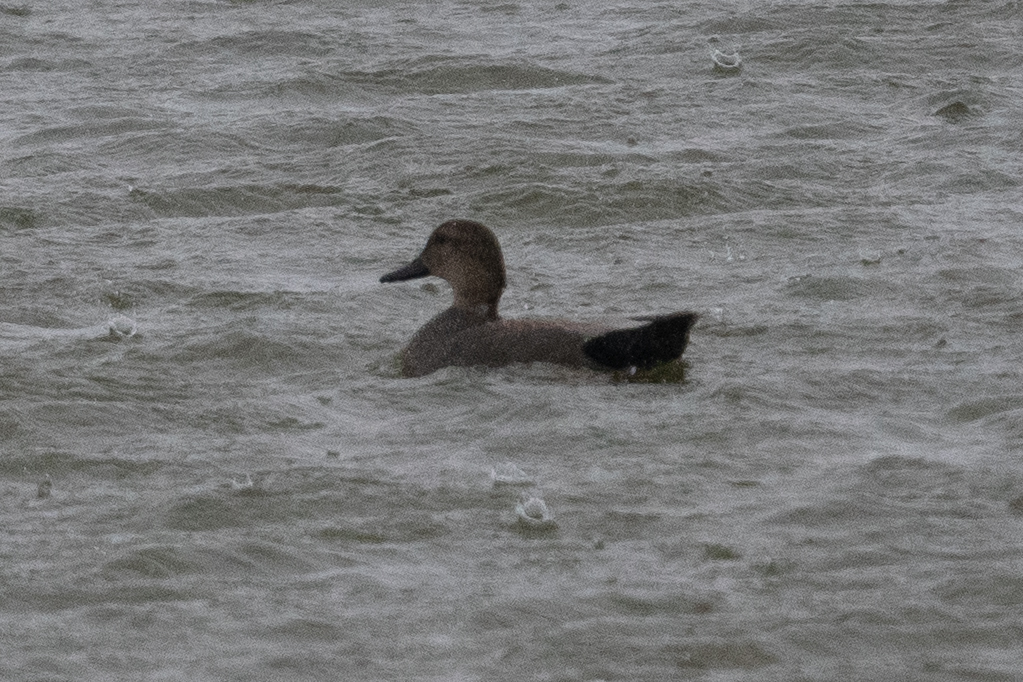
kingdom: Animalia
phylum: Chordata
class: Aves
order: Anseriformes
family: Anatidae
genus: Mareca
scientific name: Mareca strepera
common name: Gadwall
